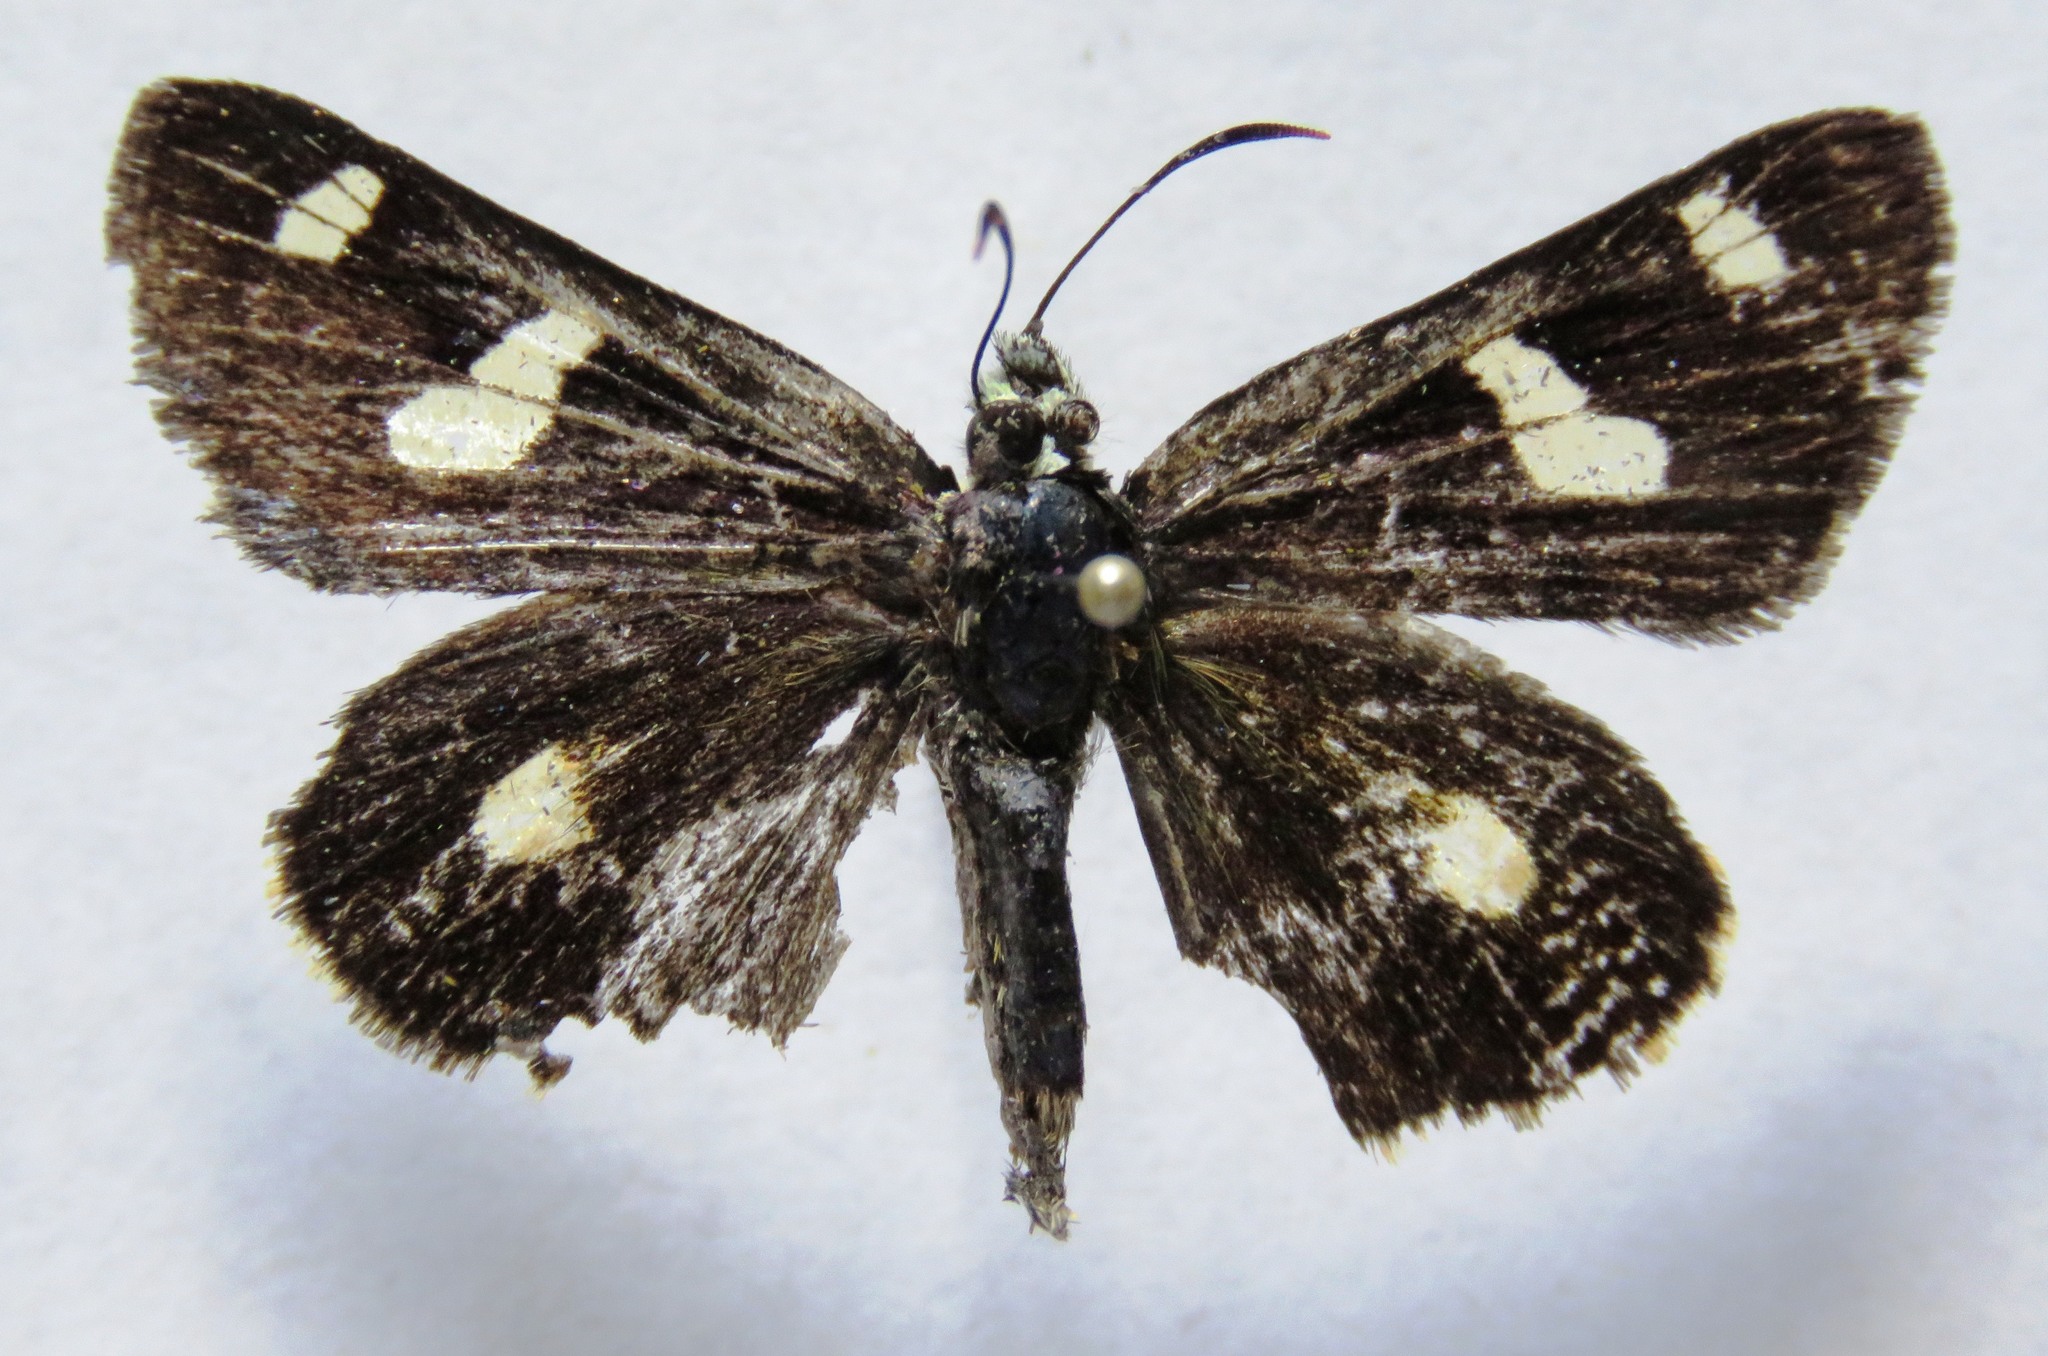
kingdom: Animalia
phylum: Arthropoda
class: Insecta
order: Lepidoptera
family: Hesperiidae
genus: Dalla
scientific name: Dalla ramirezi
